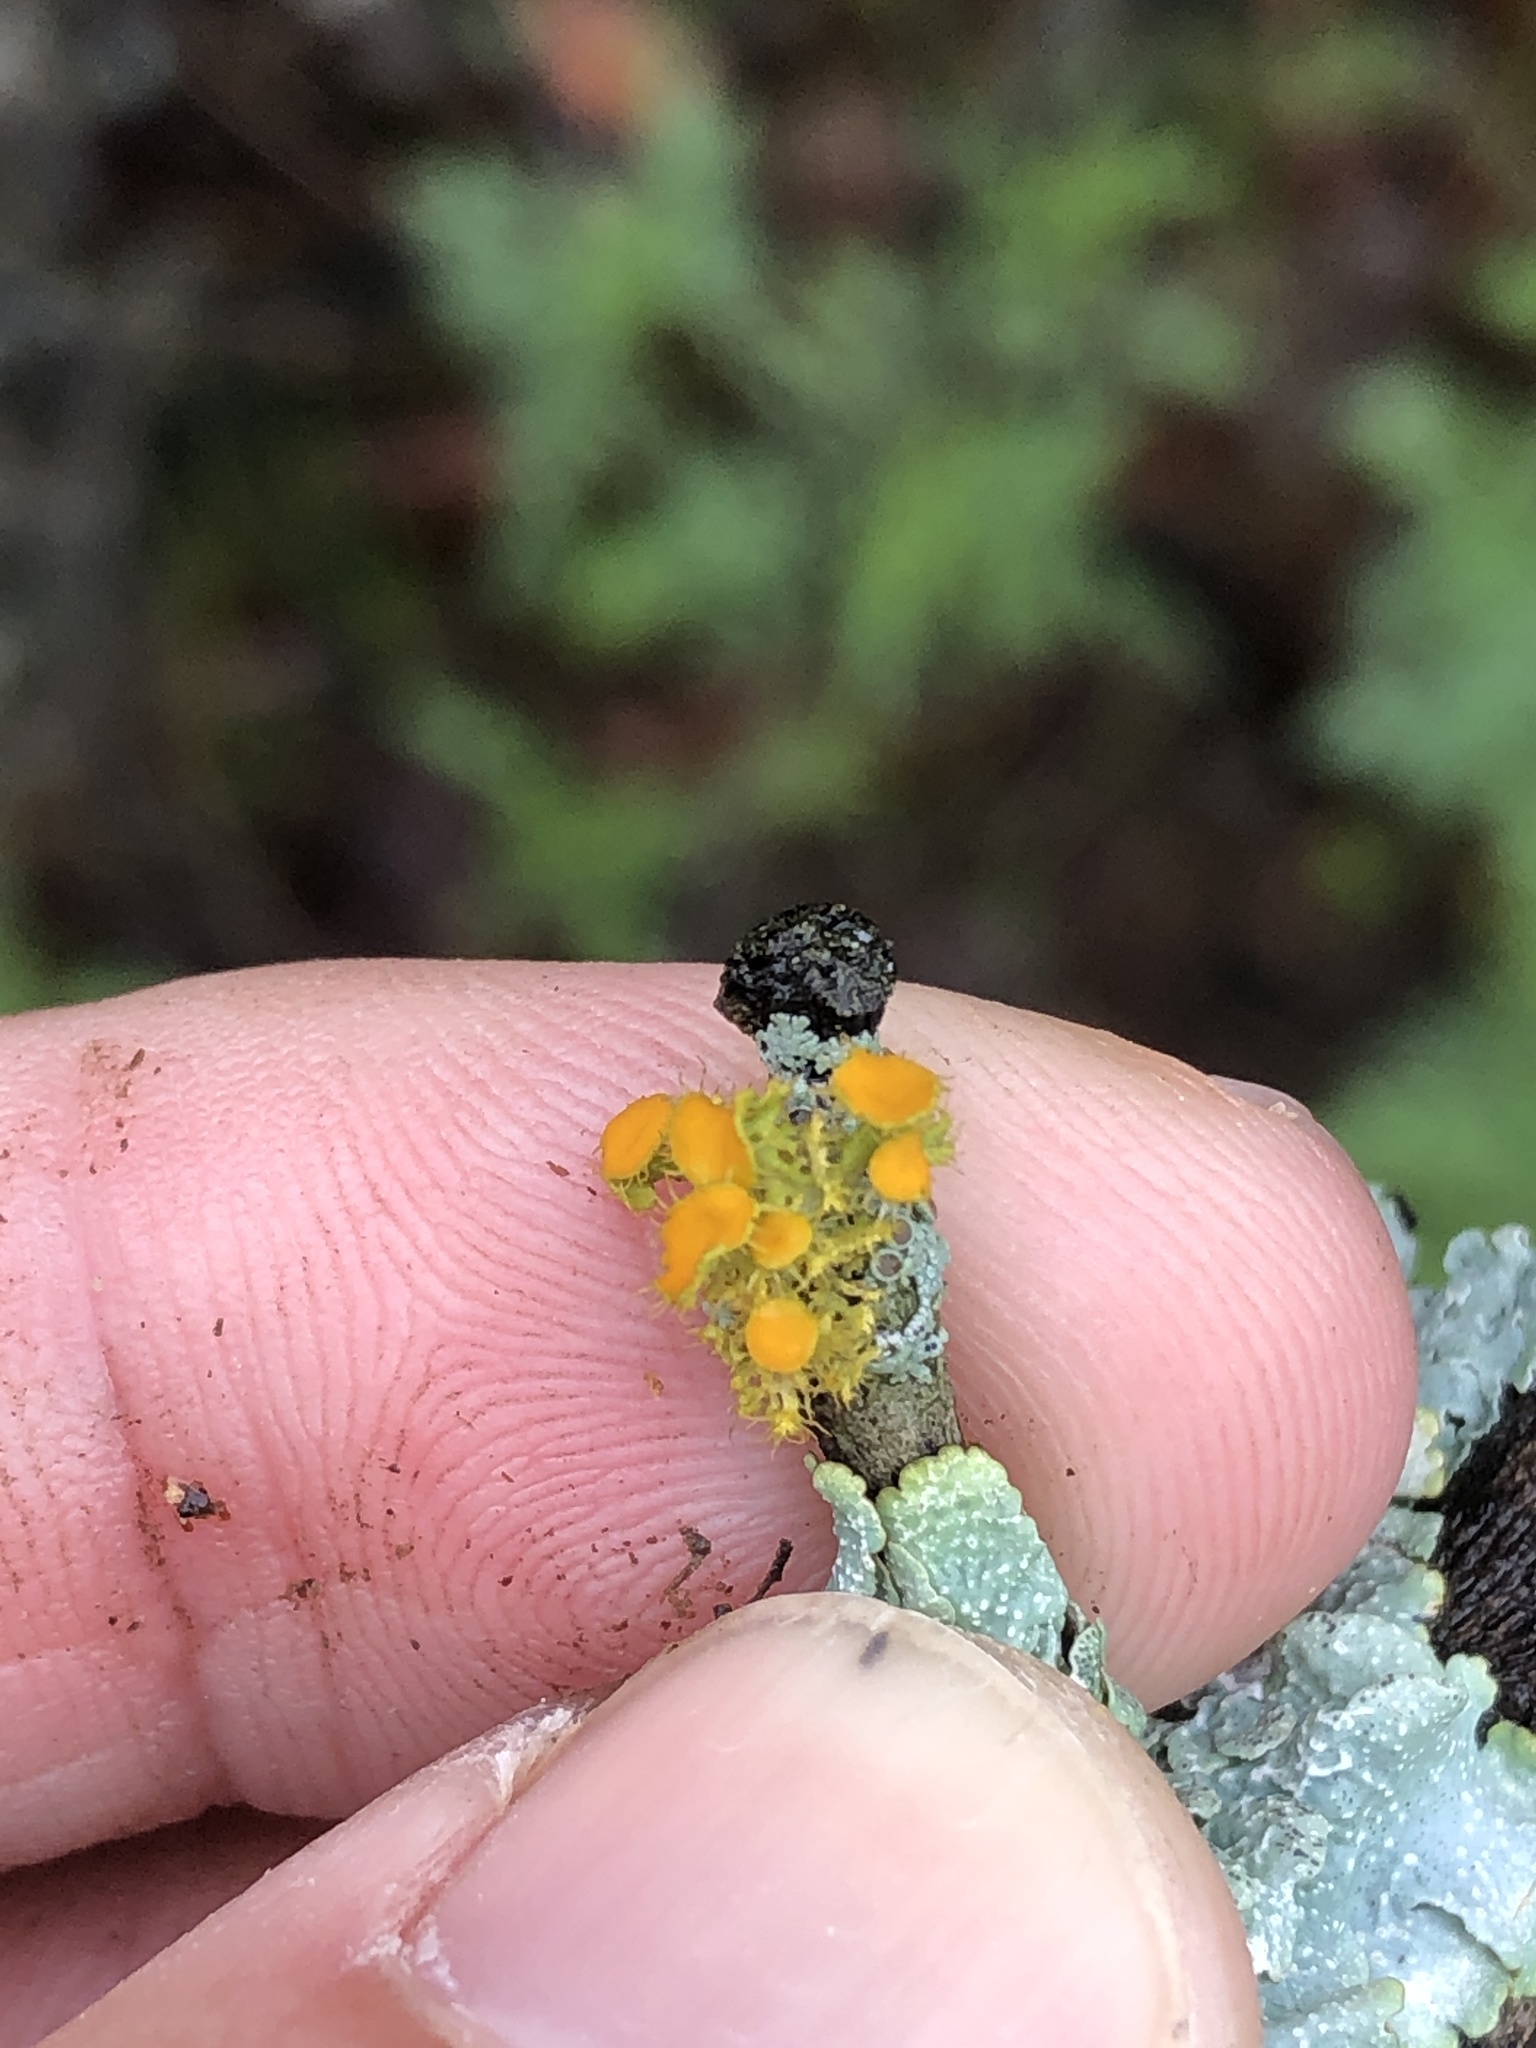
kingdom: Fungi
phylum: Ascomycota
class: Lecanoromycetes
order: Teloschistales
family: Teloschistaceae
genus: Niorma
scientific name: Niorma chrysophthalma
